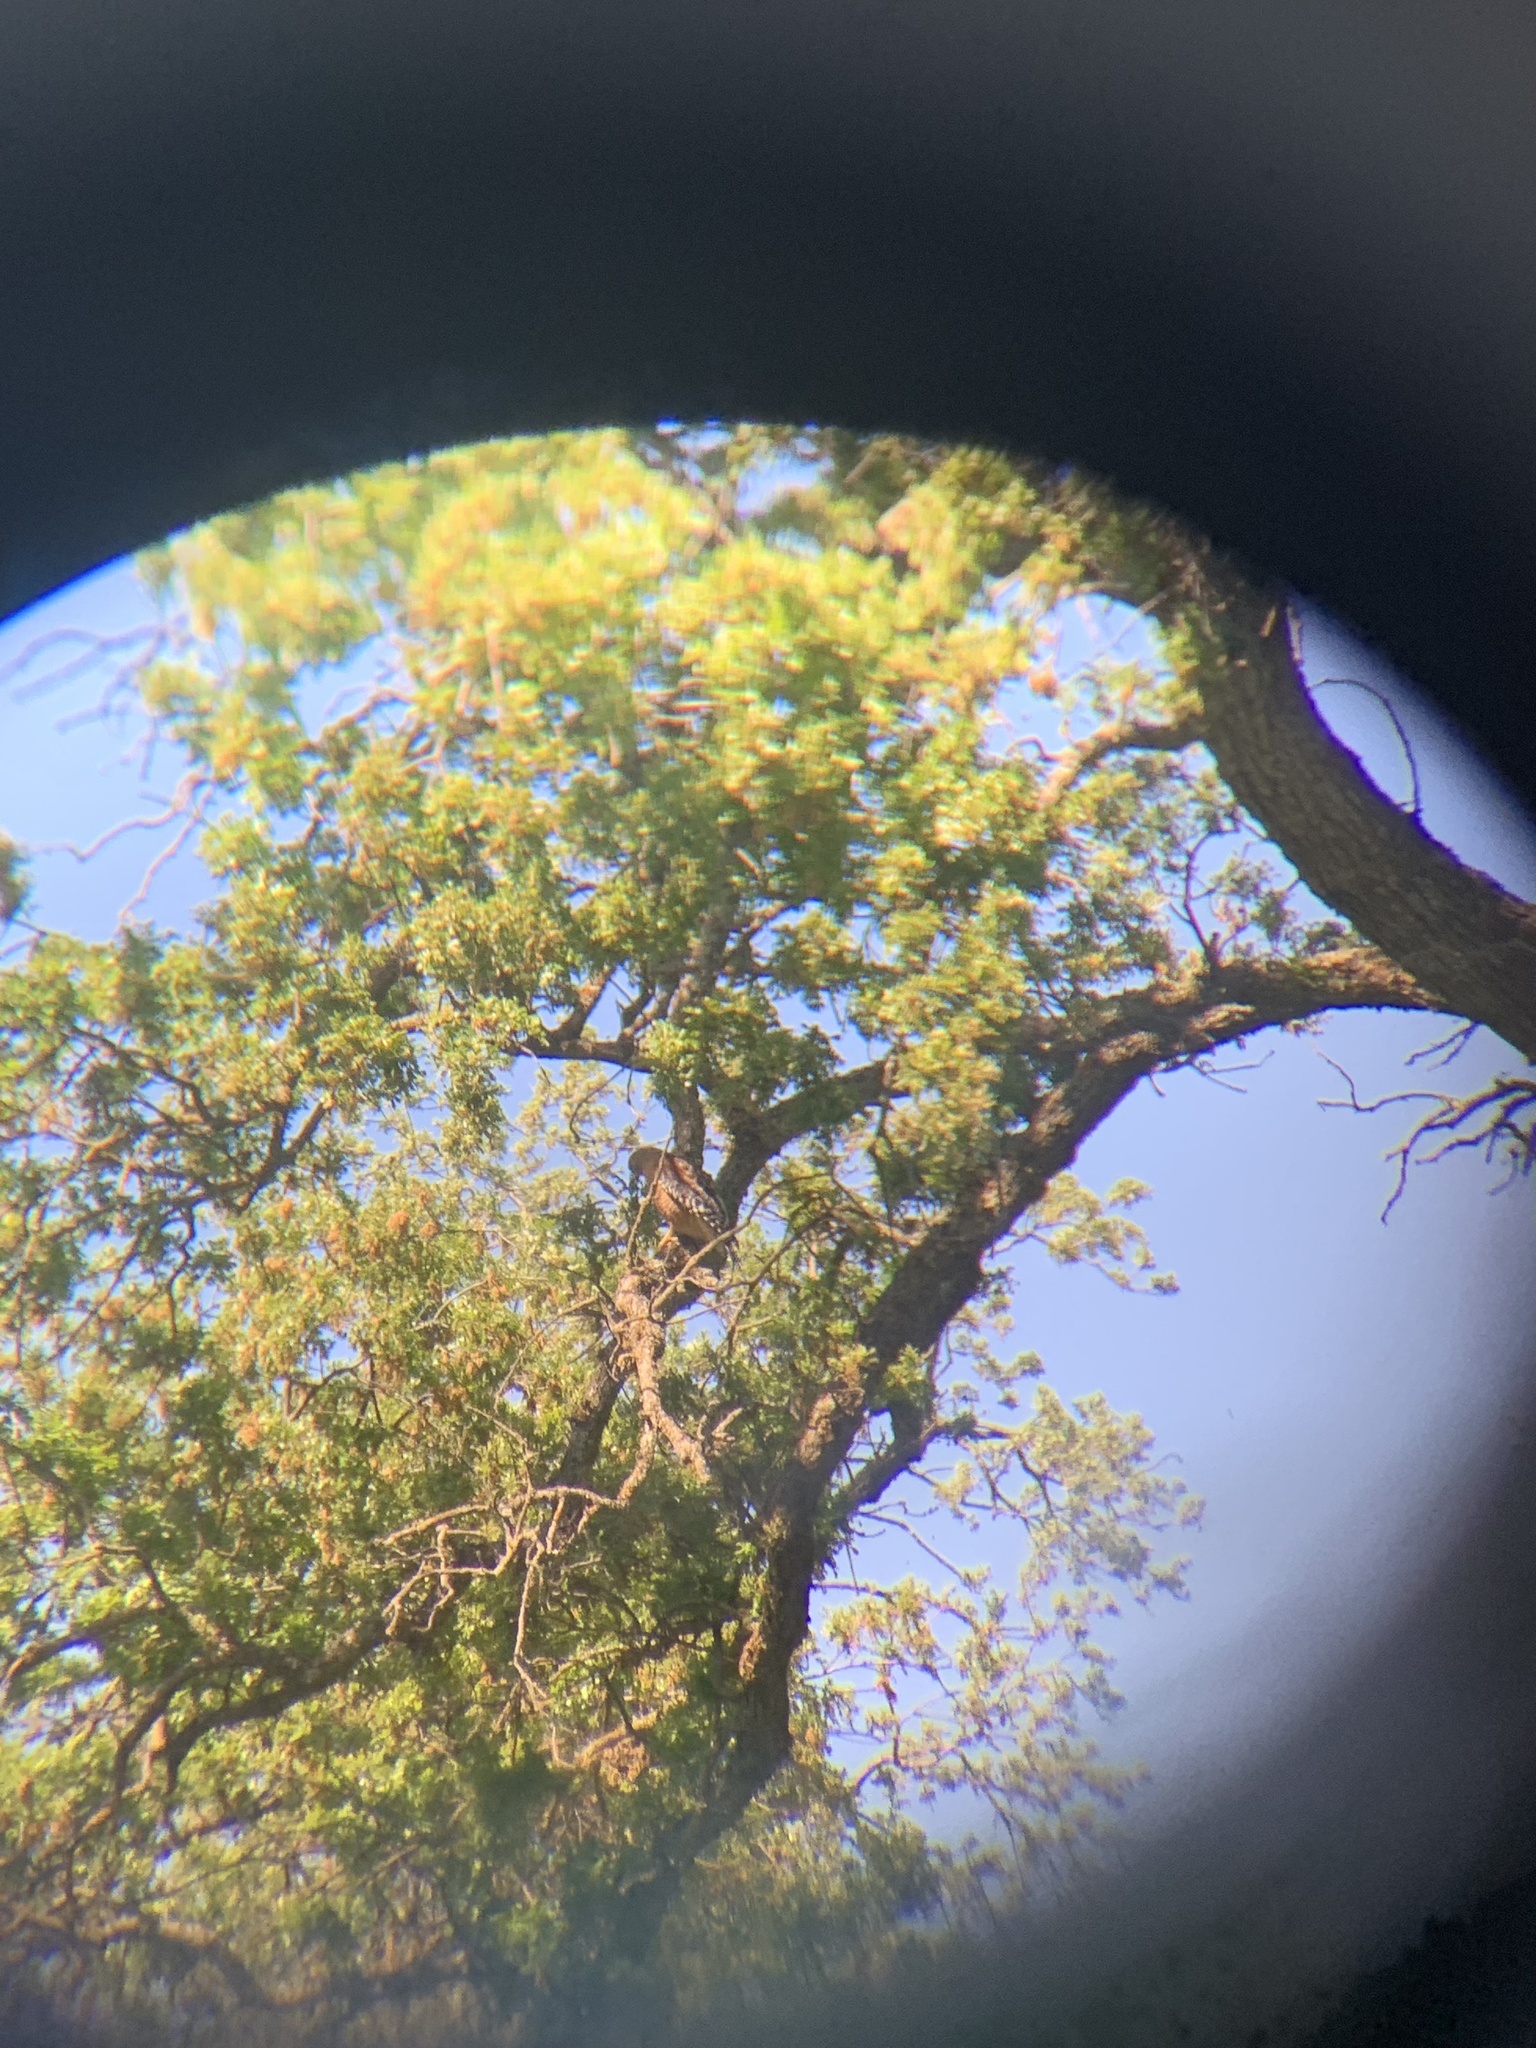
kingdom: Animalia
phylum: Chordata
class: Aves
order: Accipitriformes
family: Accipitridae
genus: Buteo
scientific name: Buteo lineatus
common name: Red-shouldered hawk
